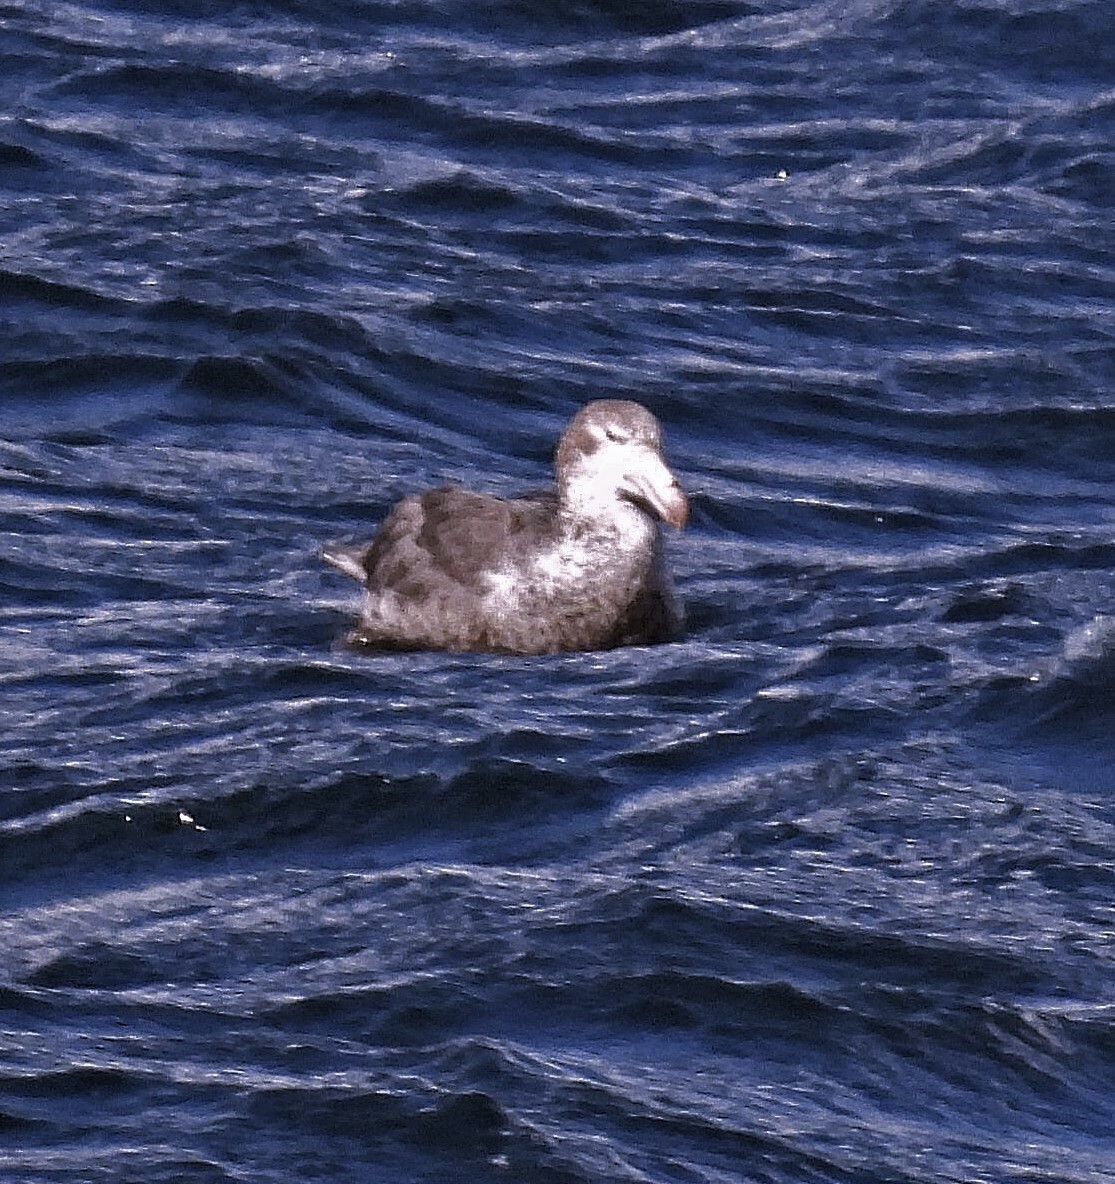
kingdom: Animalia
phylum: Chordata
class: Aves
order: Procellariiformes
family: Procellariidae
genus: Macronectes
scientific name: Macronectes halli
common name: Northern giant petrel
